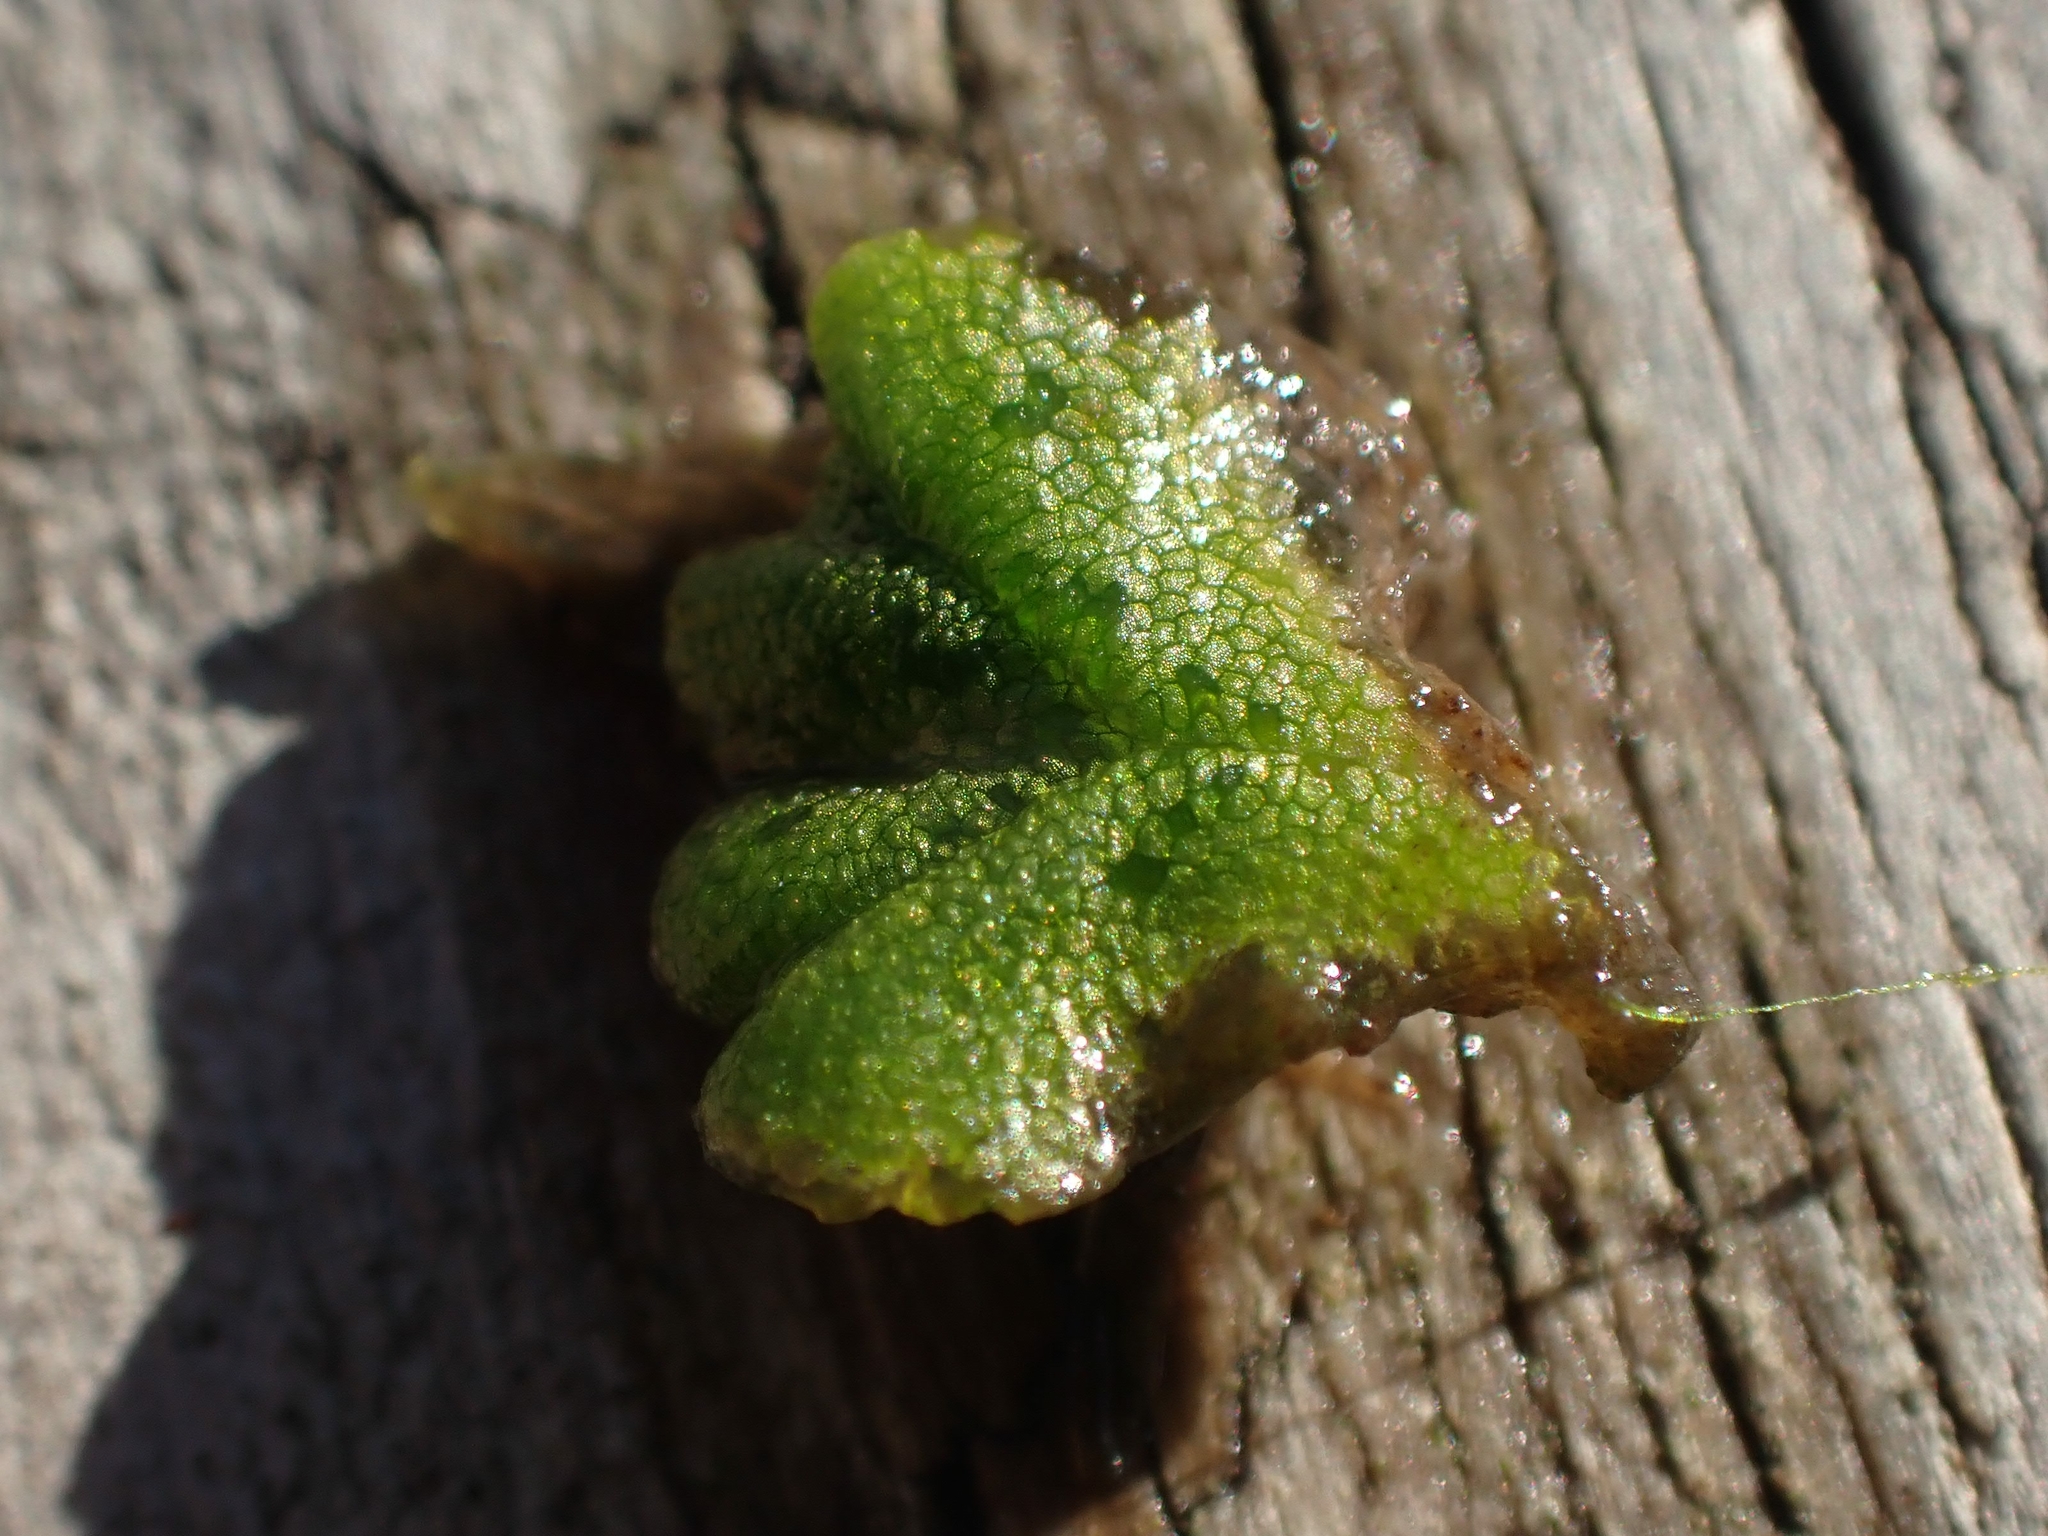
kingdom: Plantae
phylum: Marchantiophyta
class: Marchantiopsida
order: Marchantiales
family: Ricciaceae
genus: Ricciocarpos
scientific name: Ricciocarpos natans
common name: Purple-fringed liverwort
